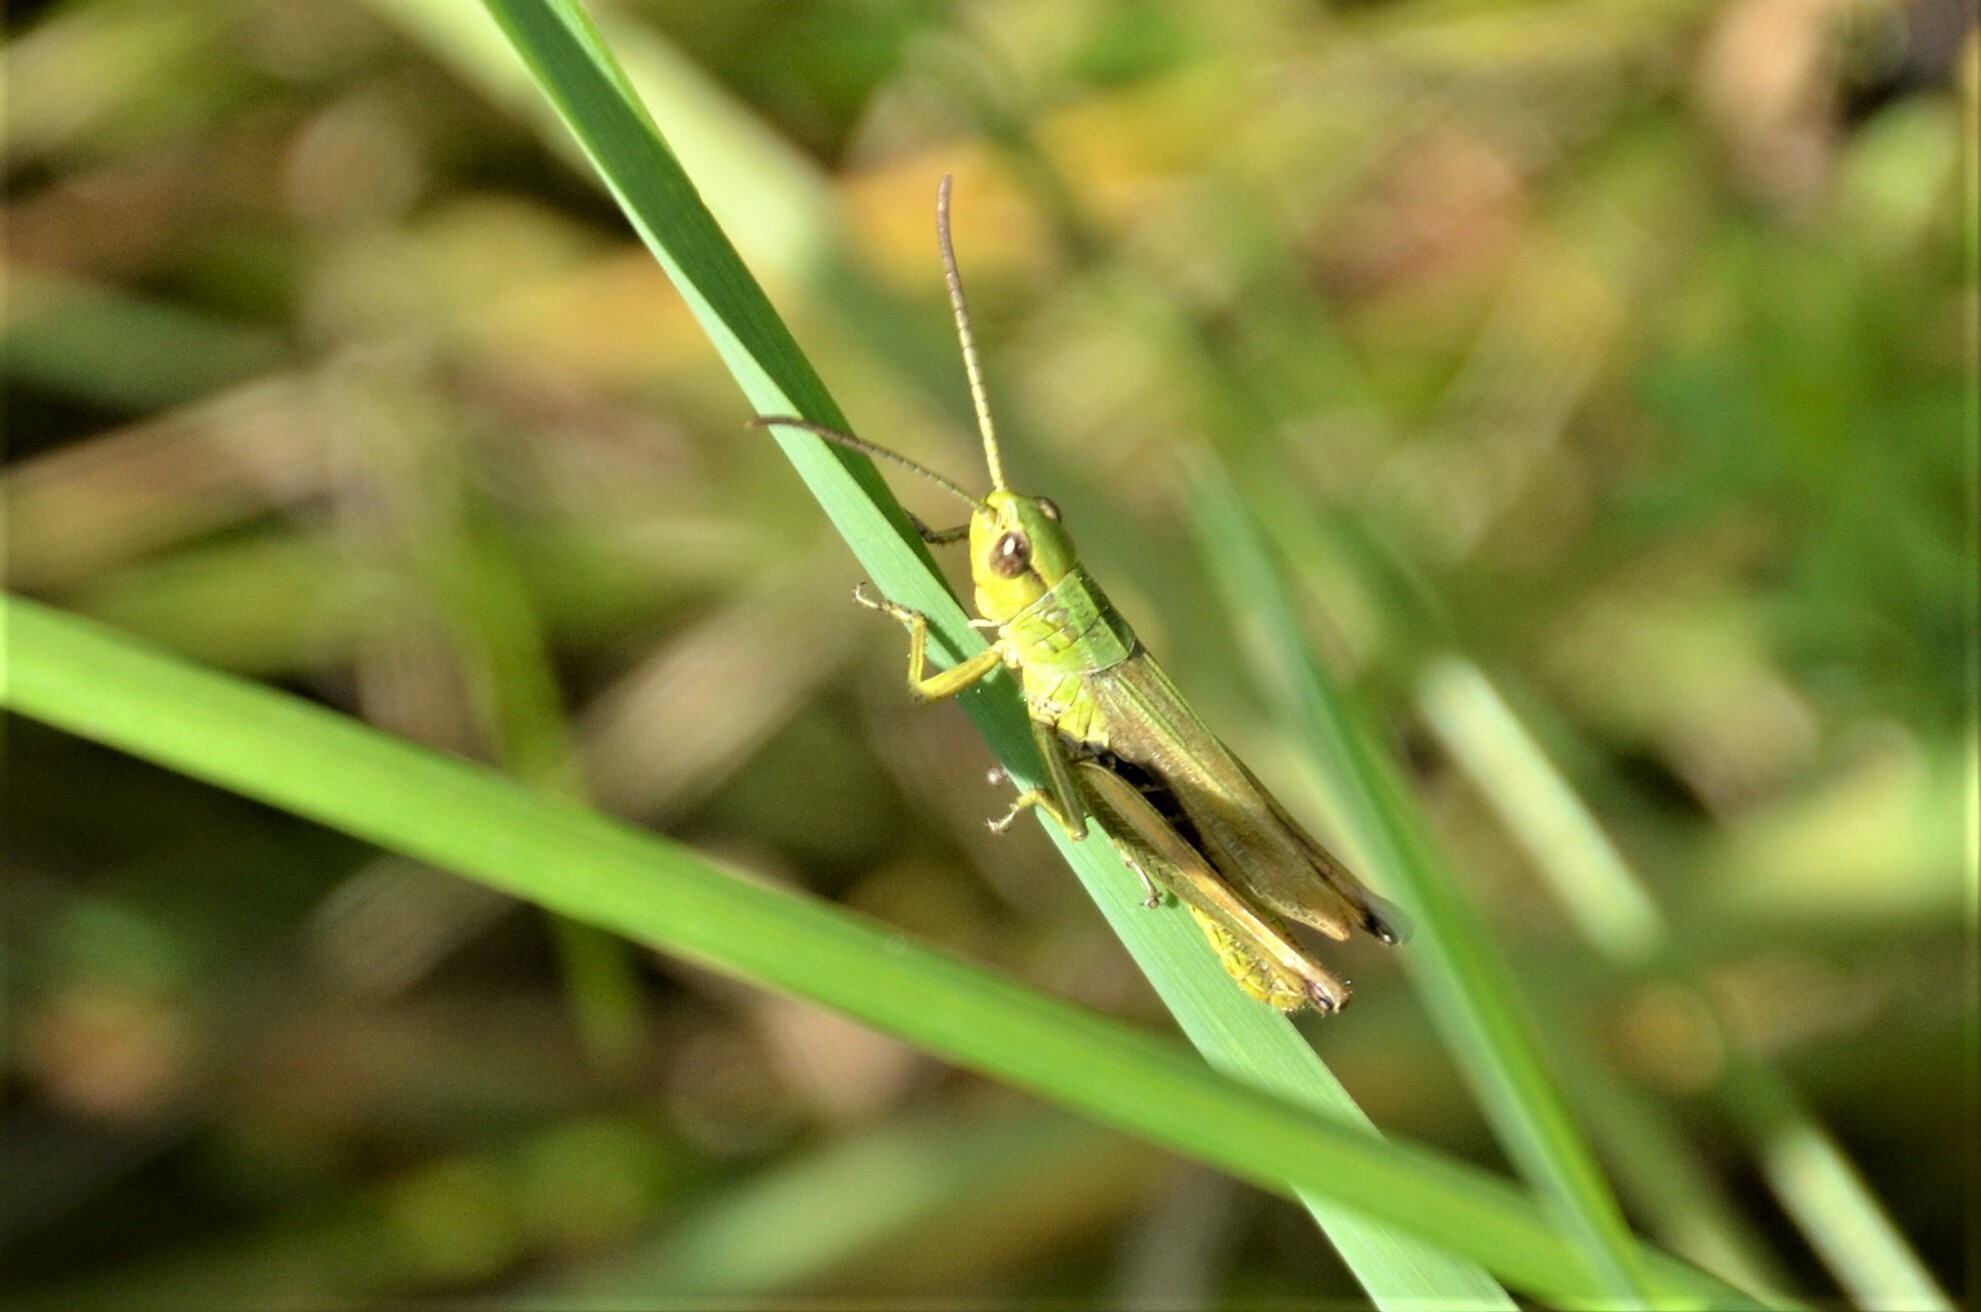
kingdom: Animalia
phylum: Arthropoda
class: Insecta
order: Orthoptera
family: Acrididae
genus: Pseudochorthippus
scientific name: Pseudochorthippus parallelus
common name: Meadow grasshopper
